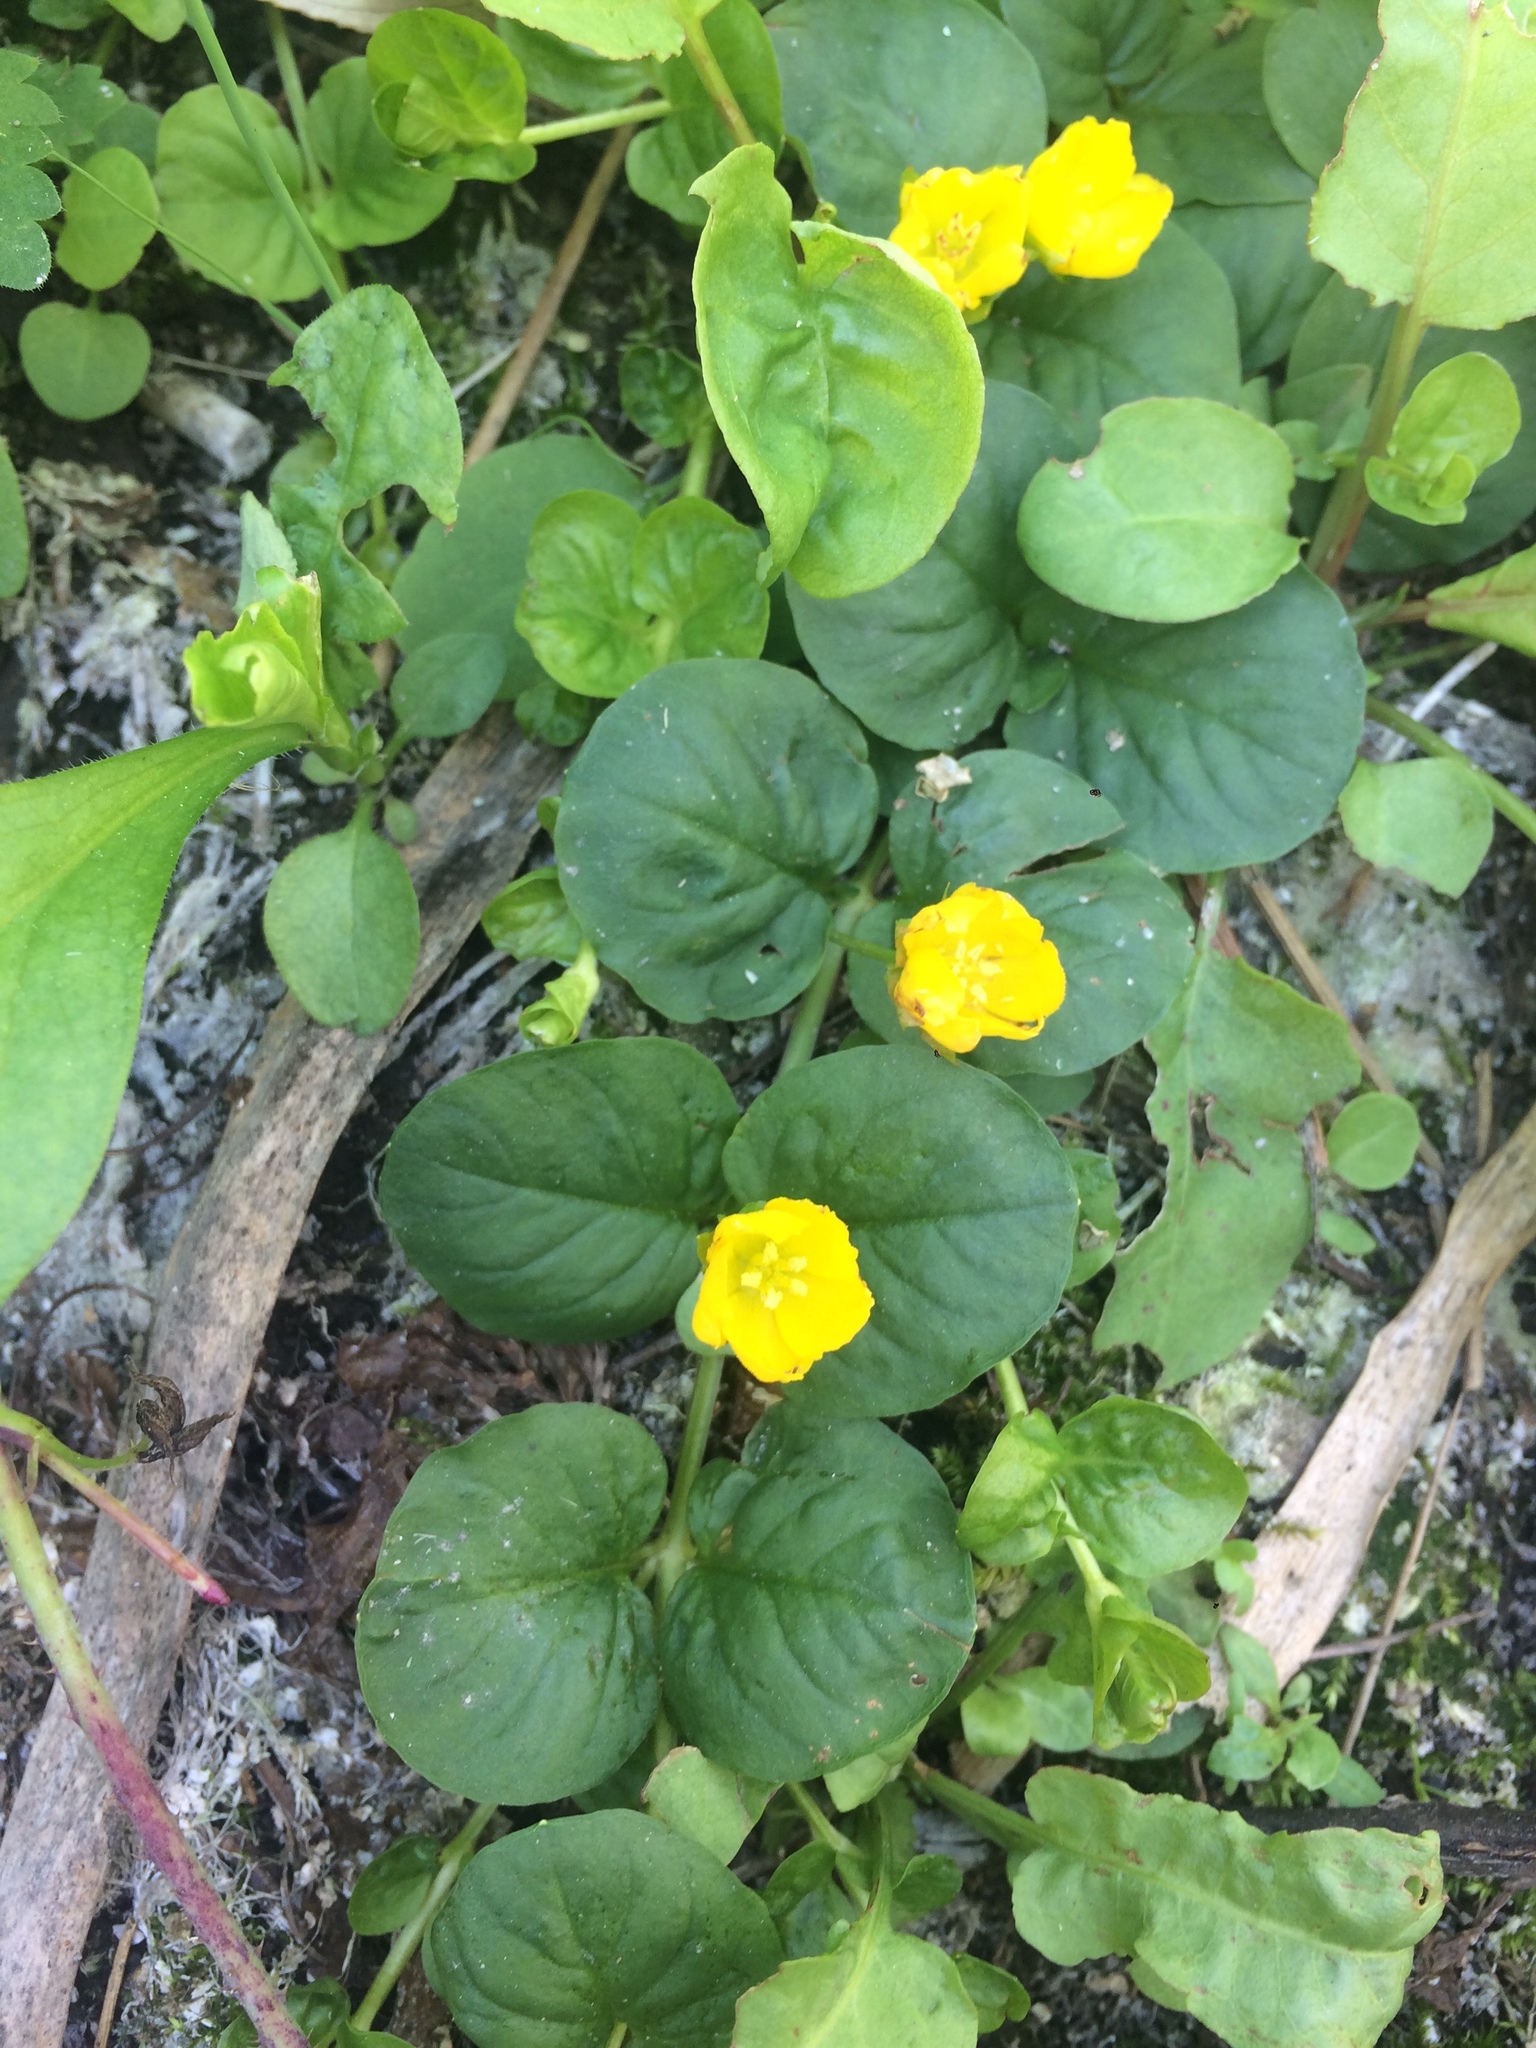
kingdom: Plantae
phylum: Tracheophyta
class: Magnoliopsida
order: Ericales
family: Primulaceae
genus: Lysimachia
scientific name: Lysimachia nummularia
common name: Moneywort
